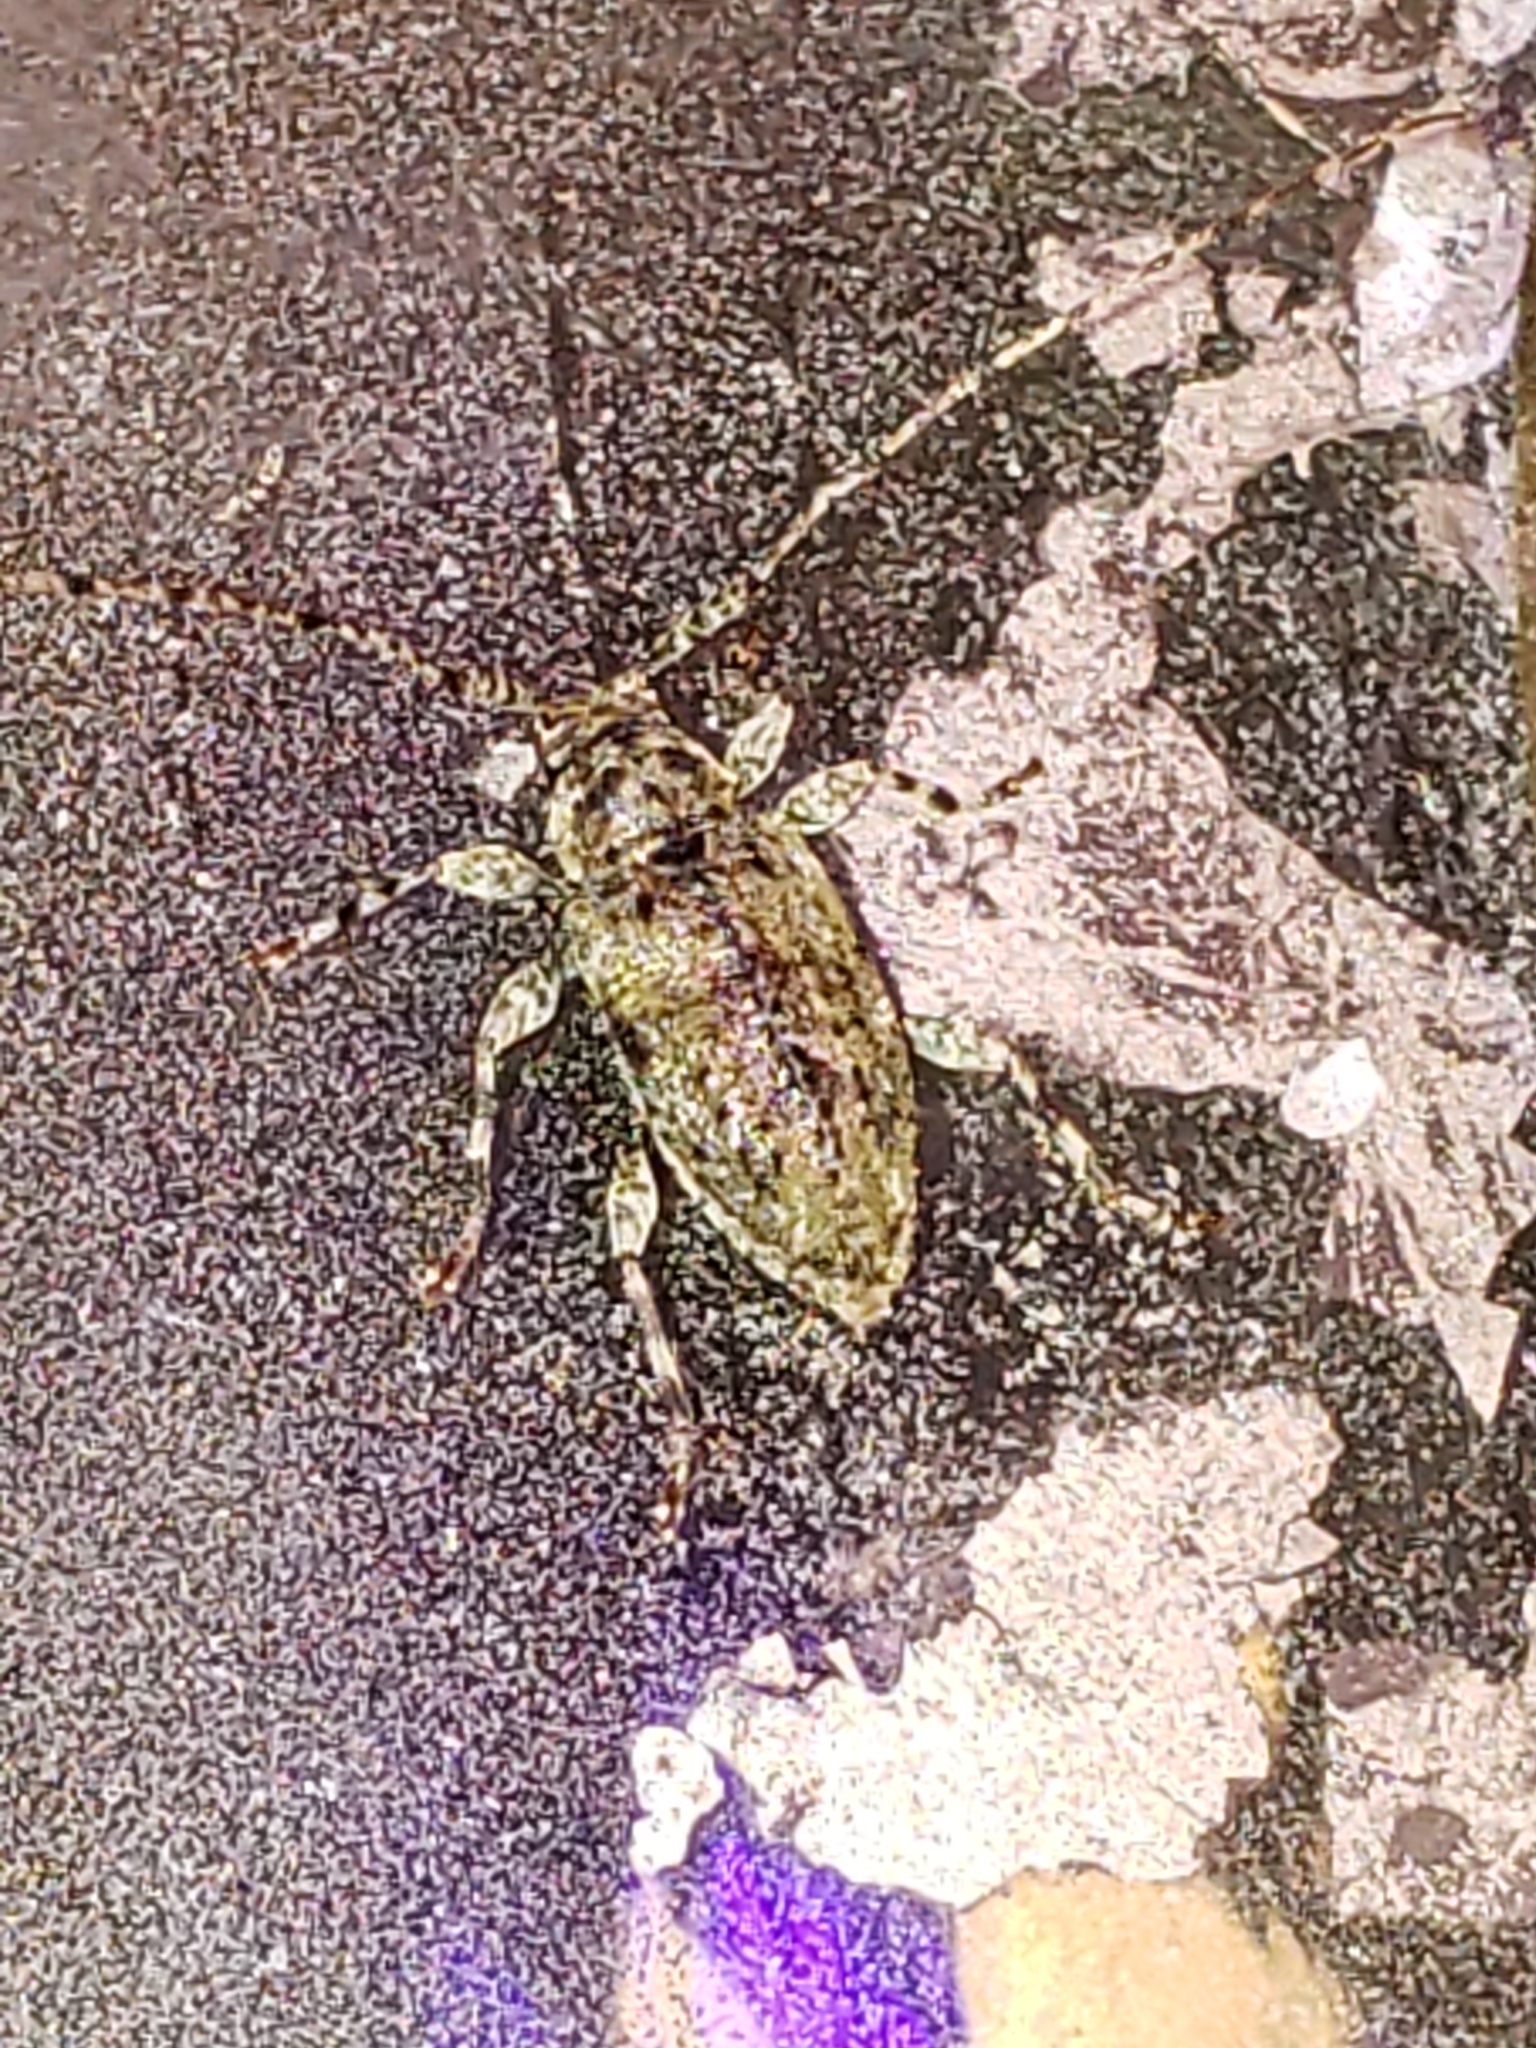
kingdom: Animalia
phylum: Arthropoda
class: Insecta
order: Coleoptera
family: Cerambycidae
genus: Astylidius
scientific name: Astylidius parvus
